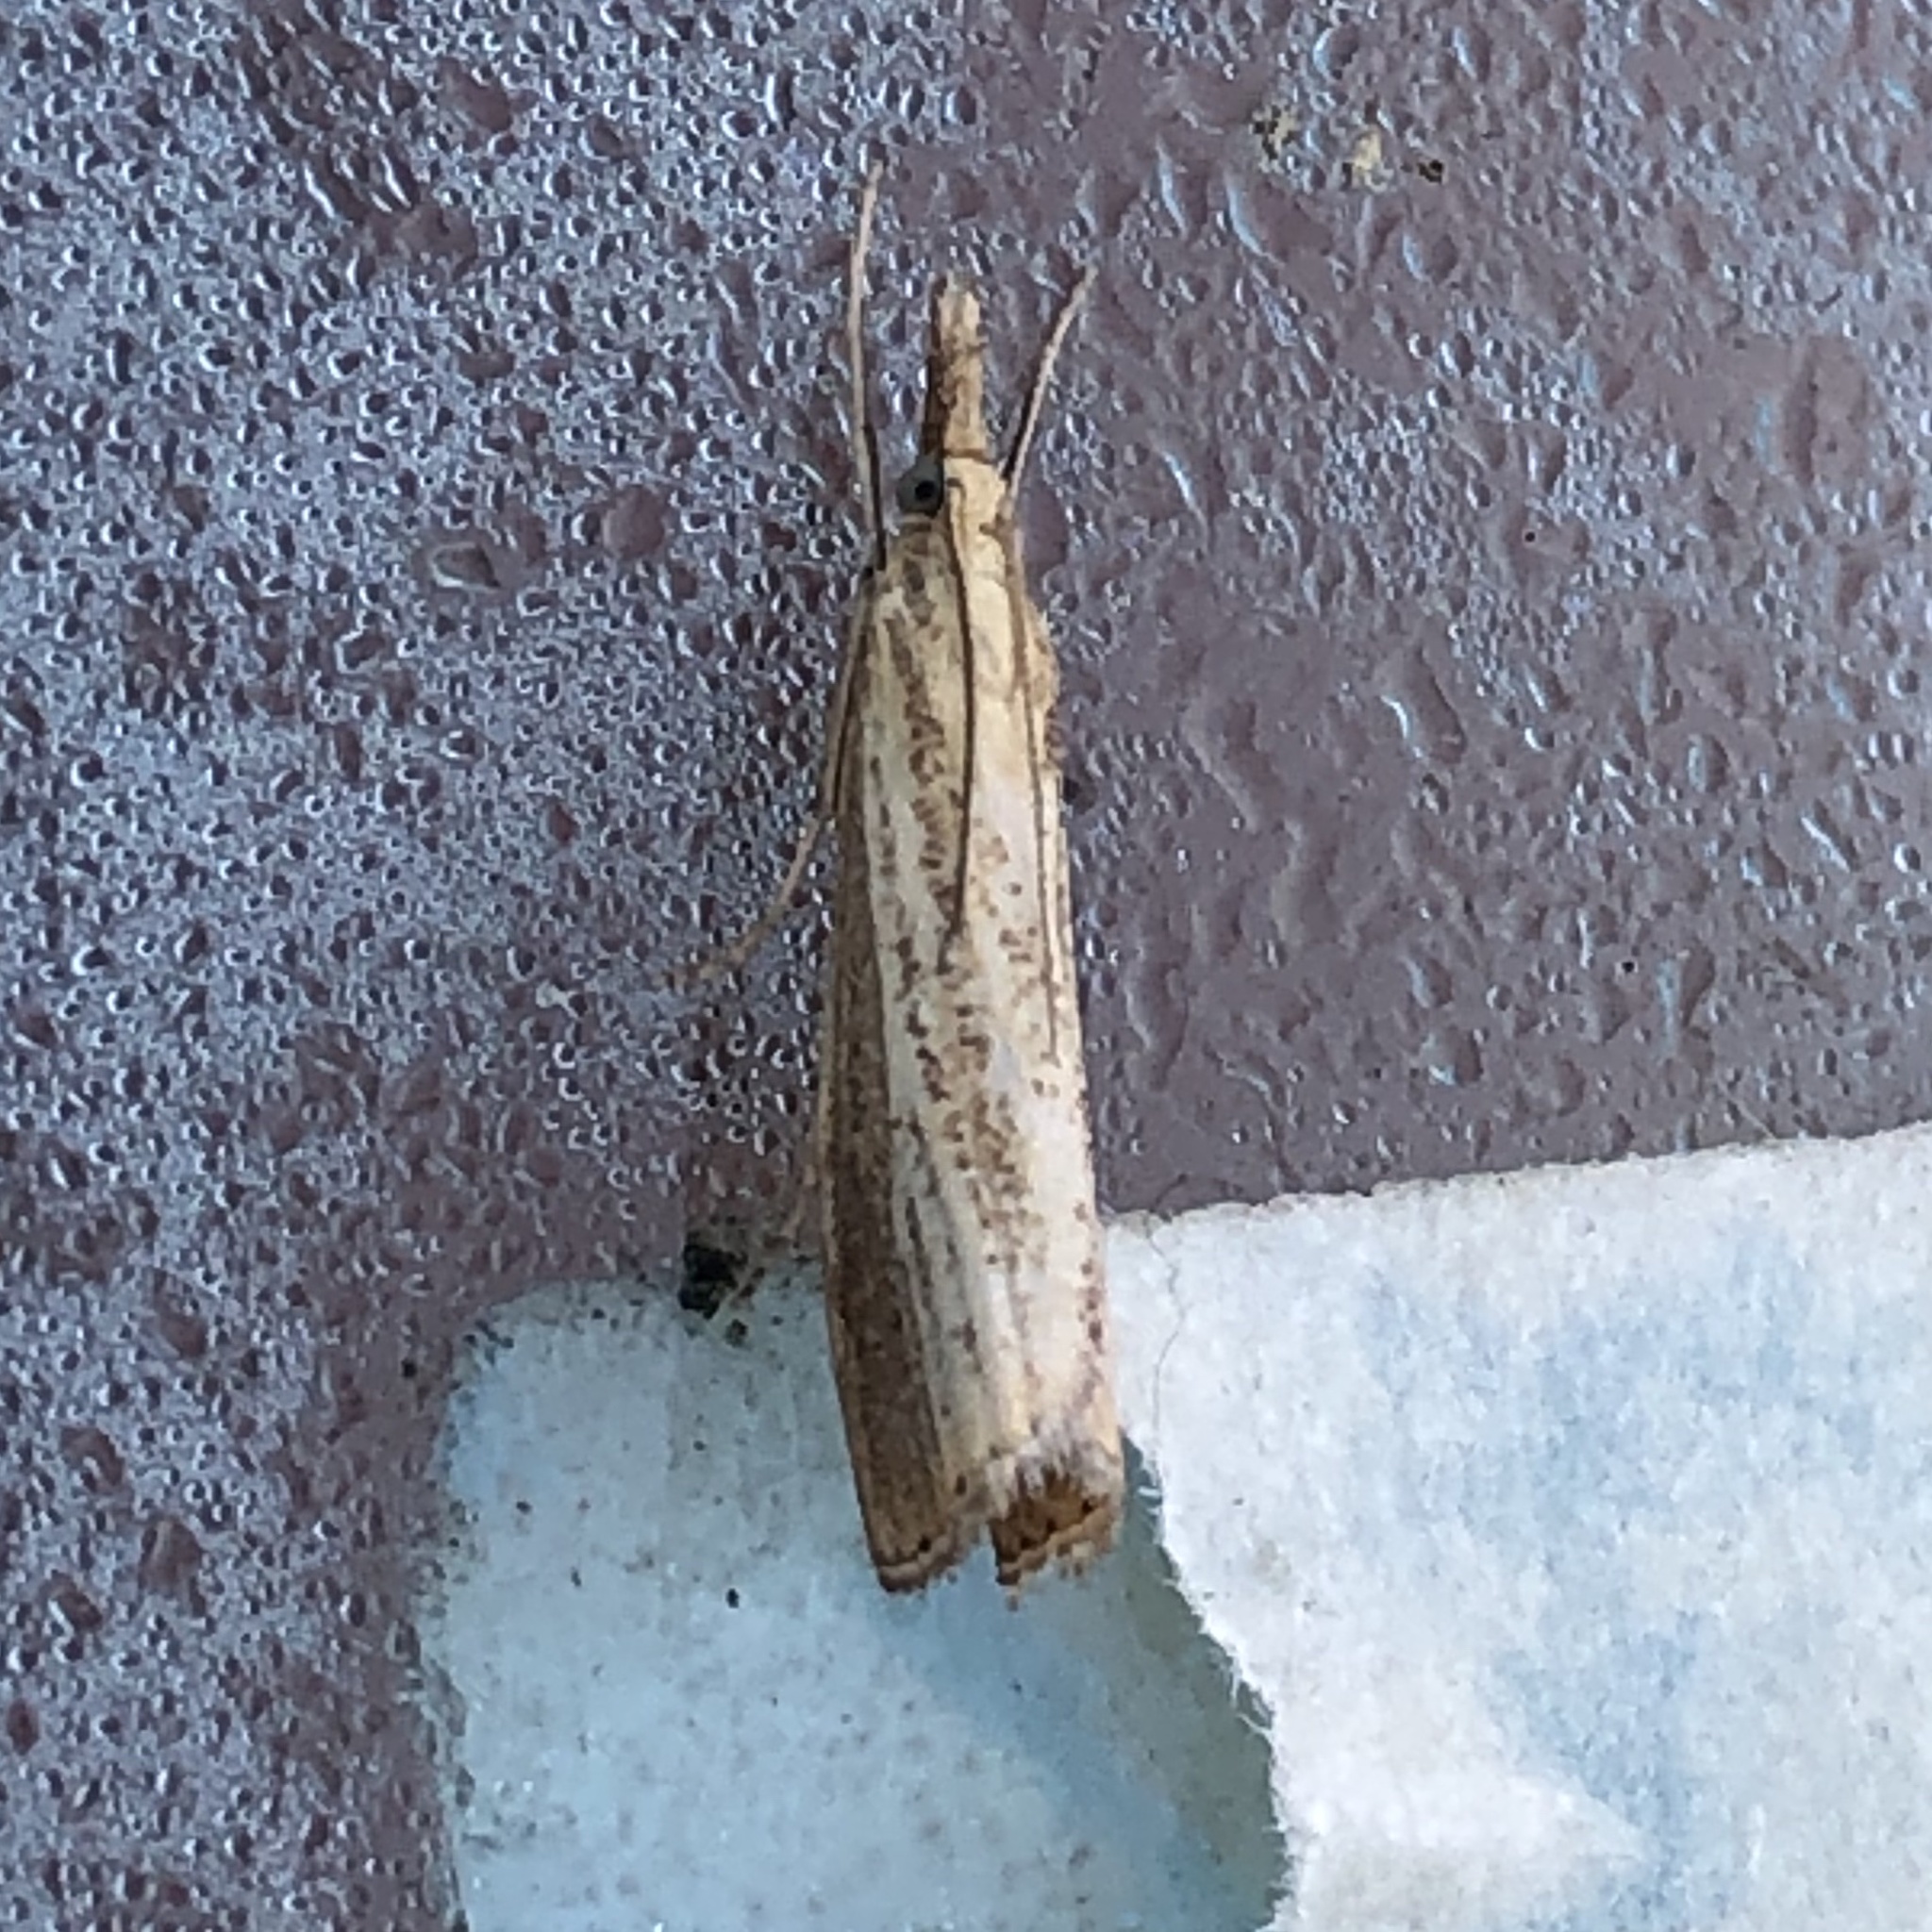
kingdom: Animalia
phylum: Arthropoda
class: Insecta
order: Lepidoptera
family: Crambidae
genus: Agriphila
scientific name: Agriphila straminella
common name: Straw grass-veneer
